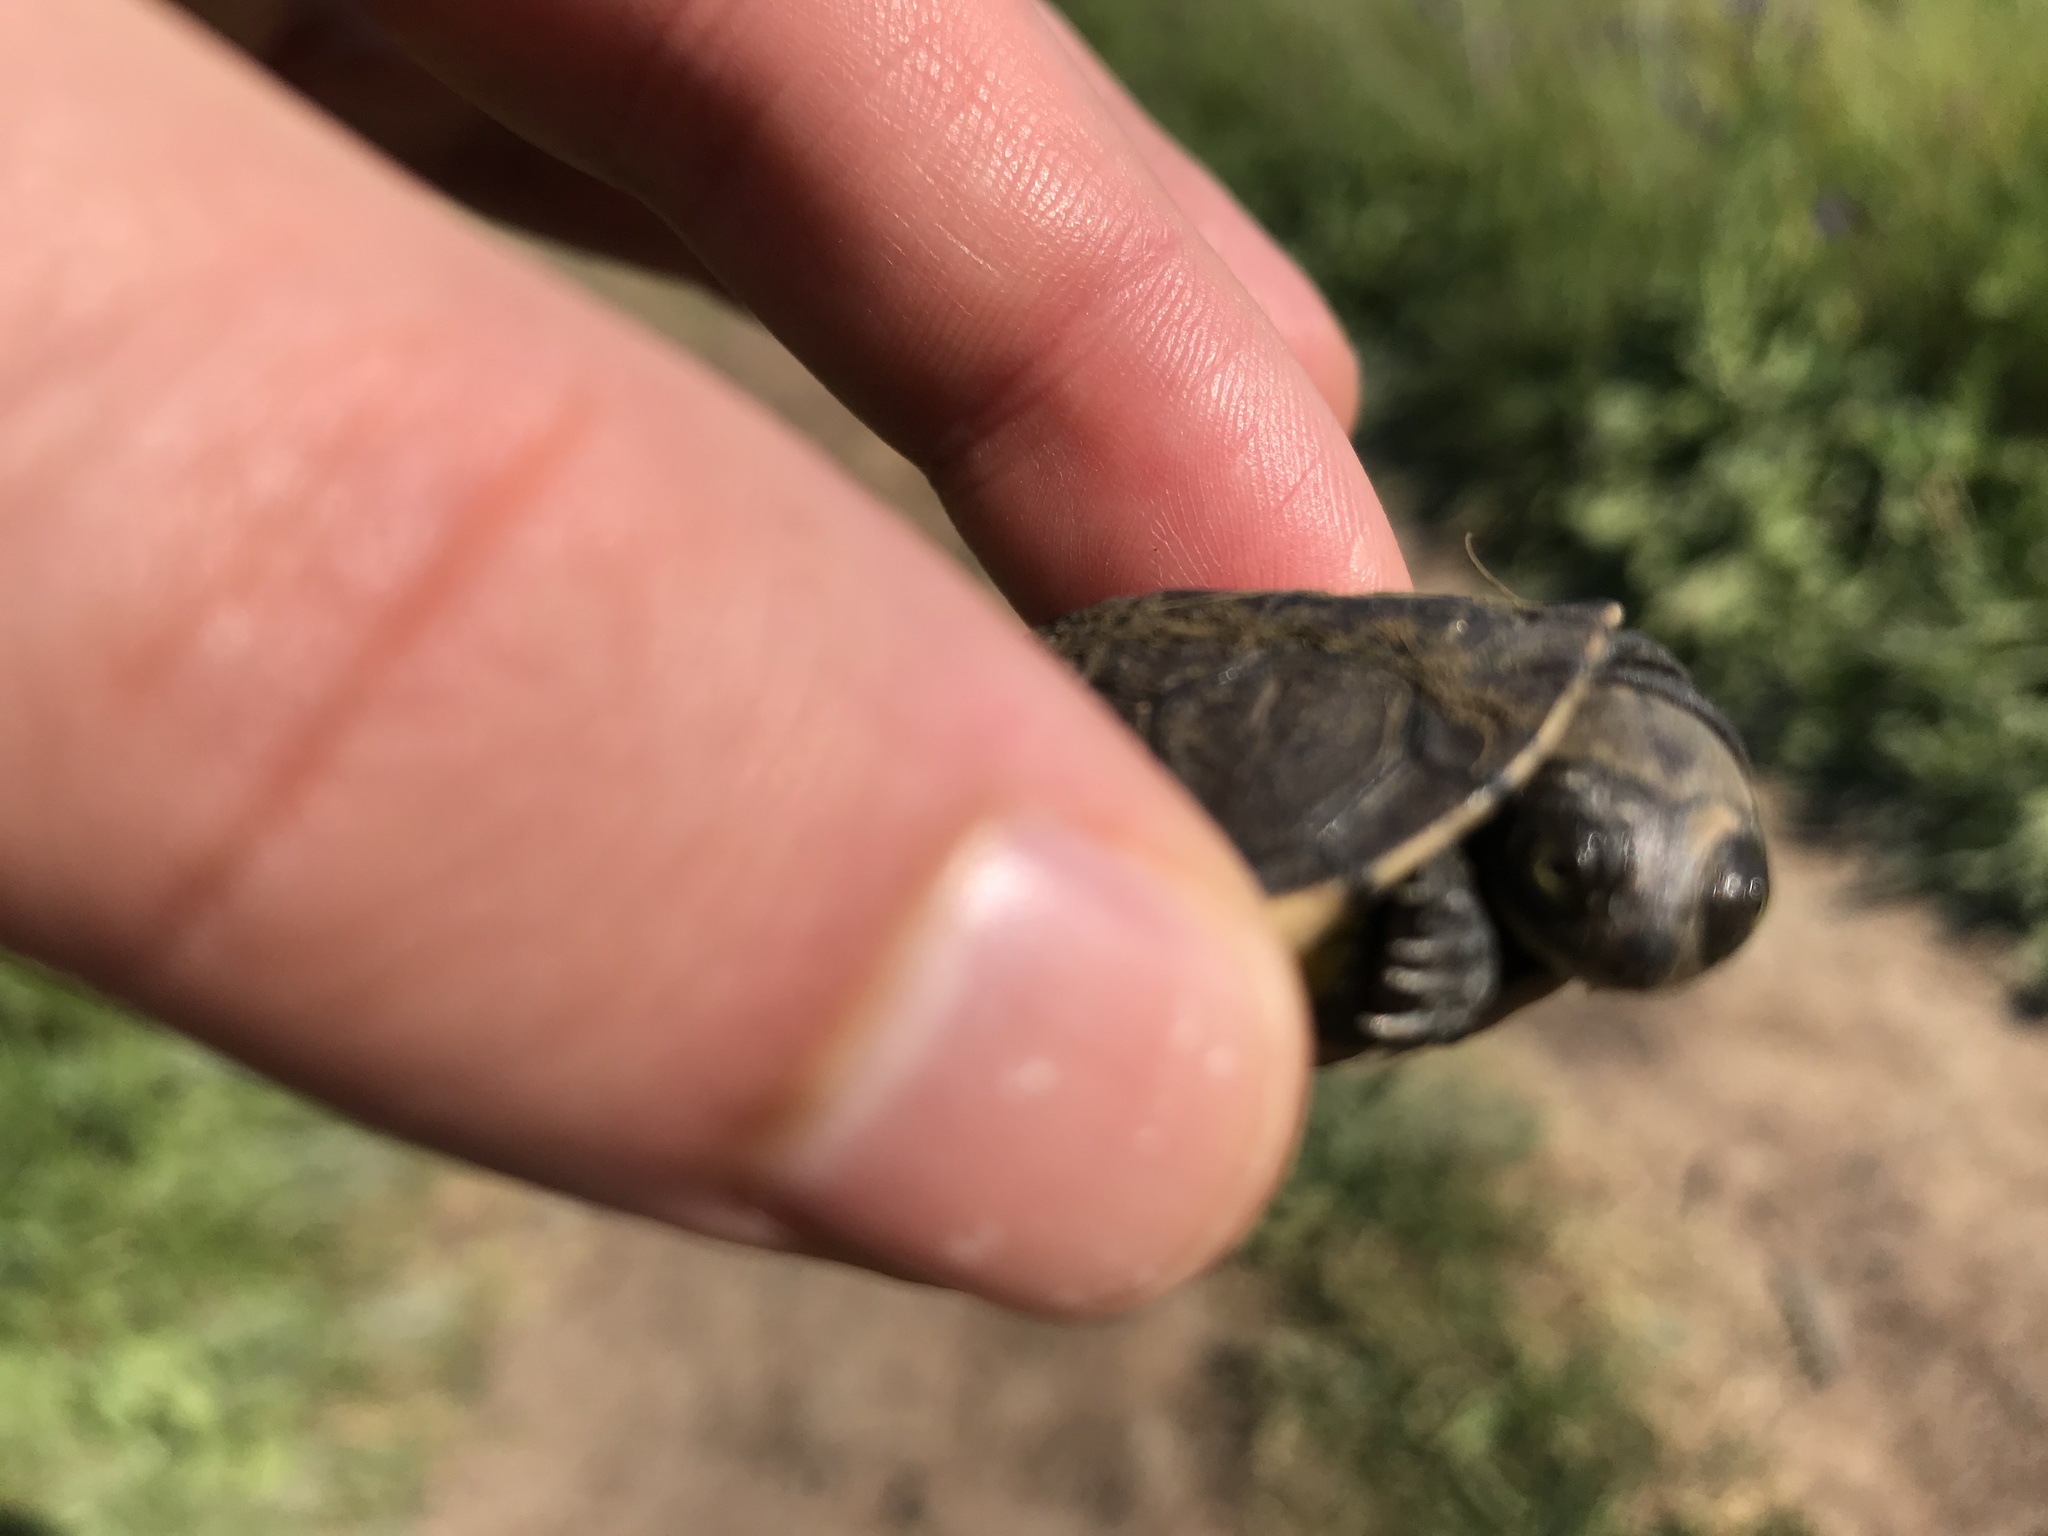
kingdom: Animalia
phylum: Chordata
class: Testudines
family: Pelomedusidae
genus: Pelomedusa
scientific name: Pelomedusa galeata
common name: South african helmeted terrapin
